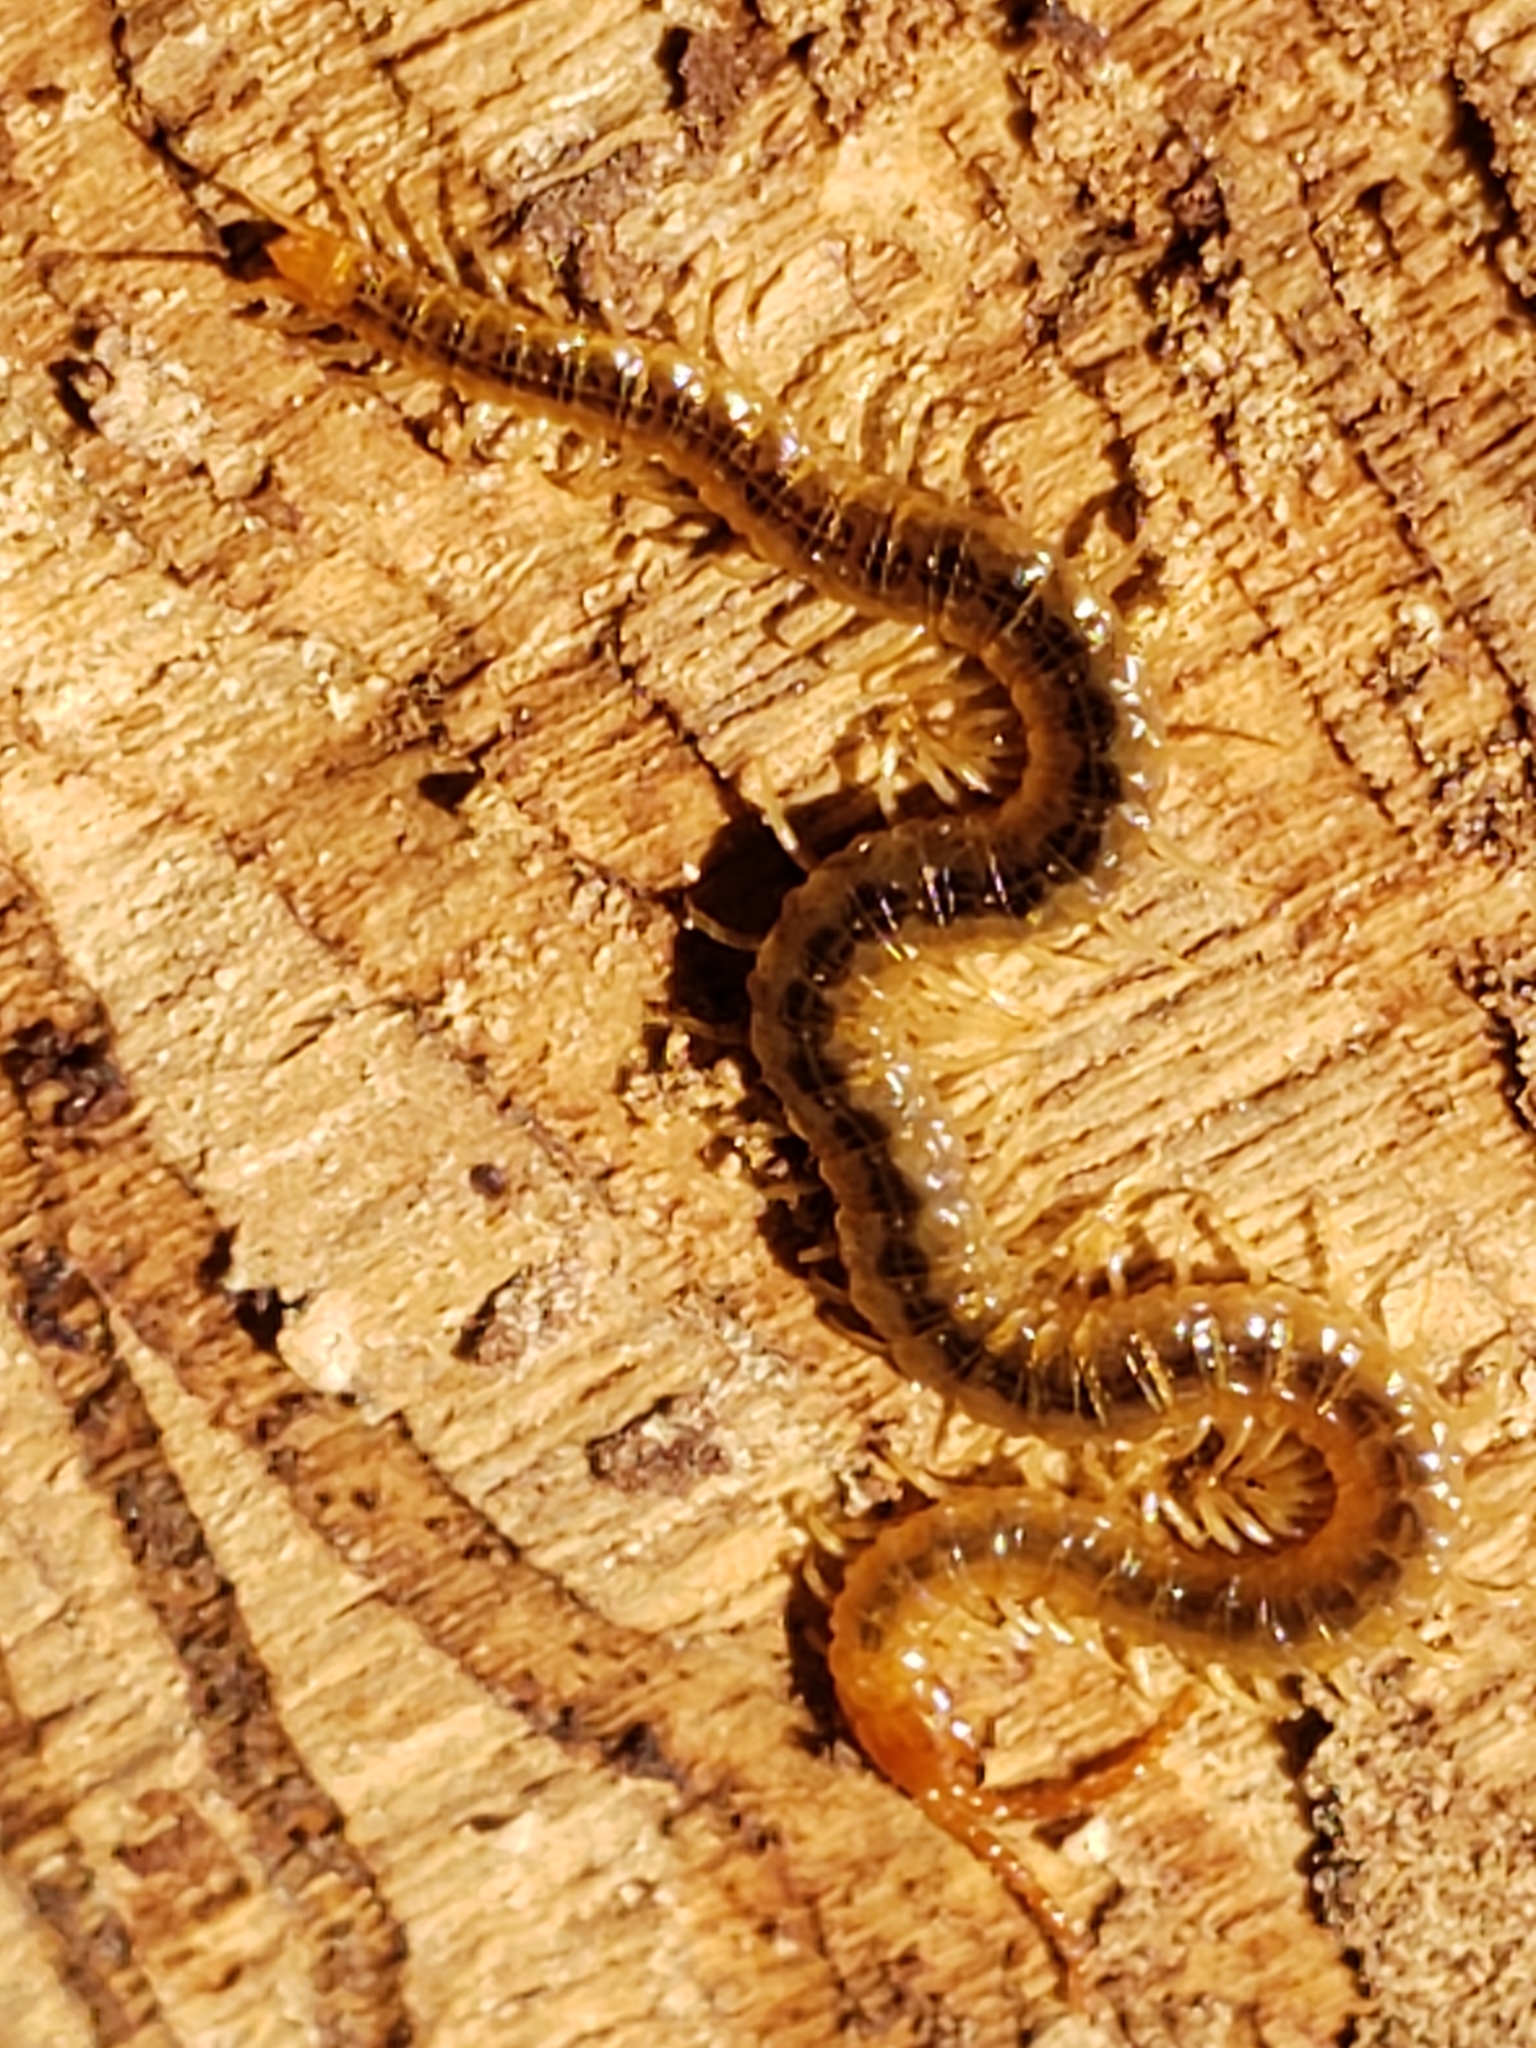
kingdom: Animalia
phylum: Arthropoda
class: Chilopoda
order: Geophilomorpha
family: Geophilidae
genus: Geophilus
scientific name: Geophilus vittatus
